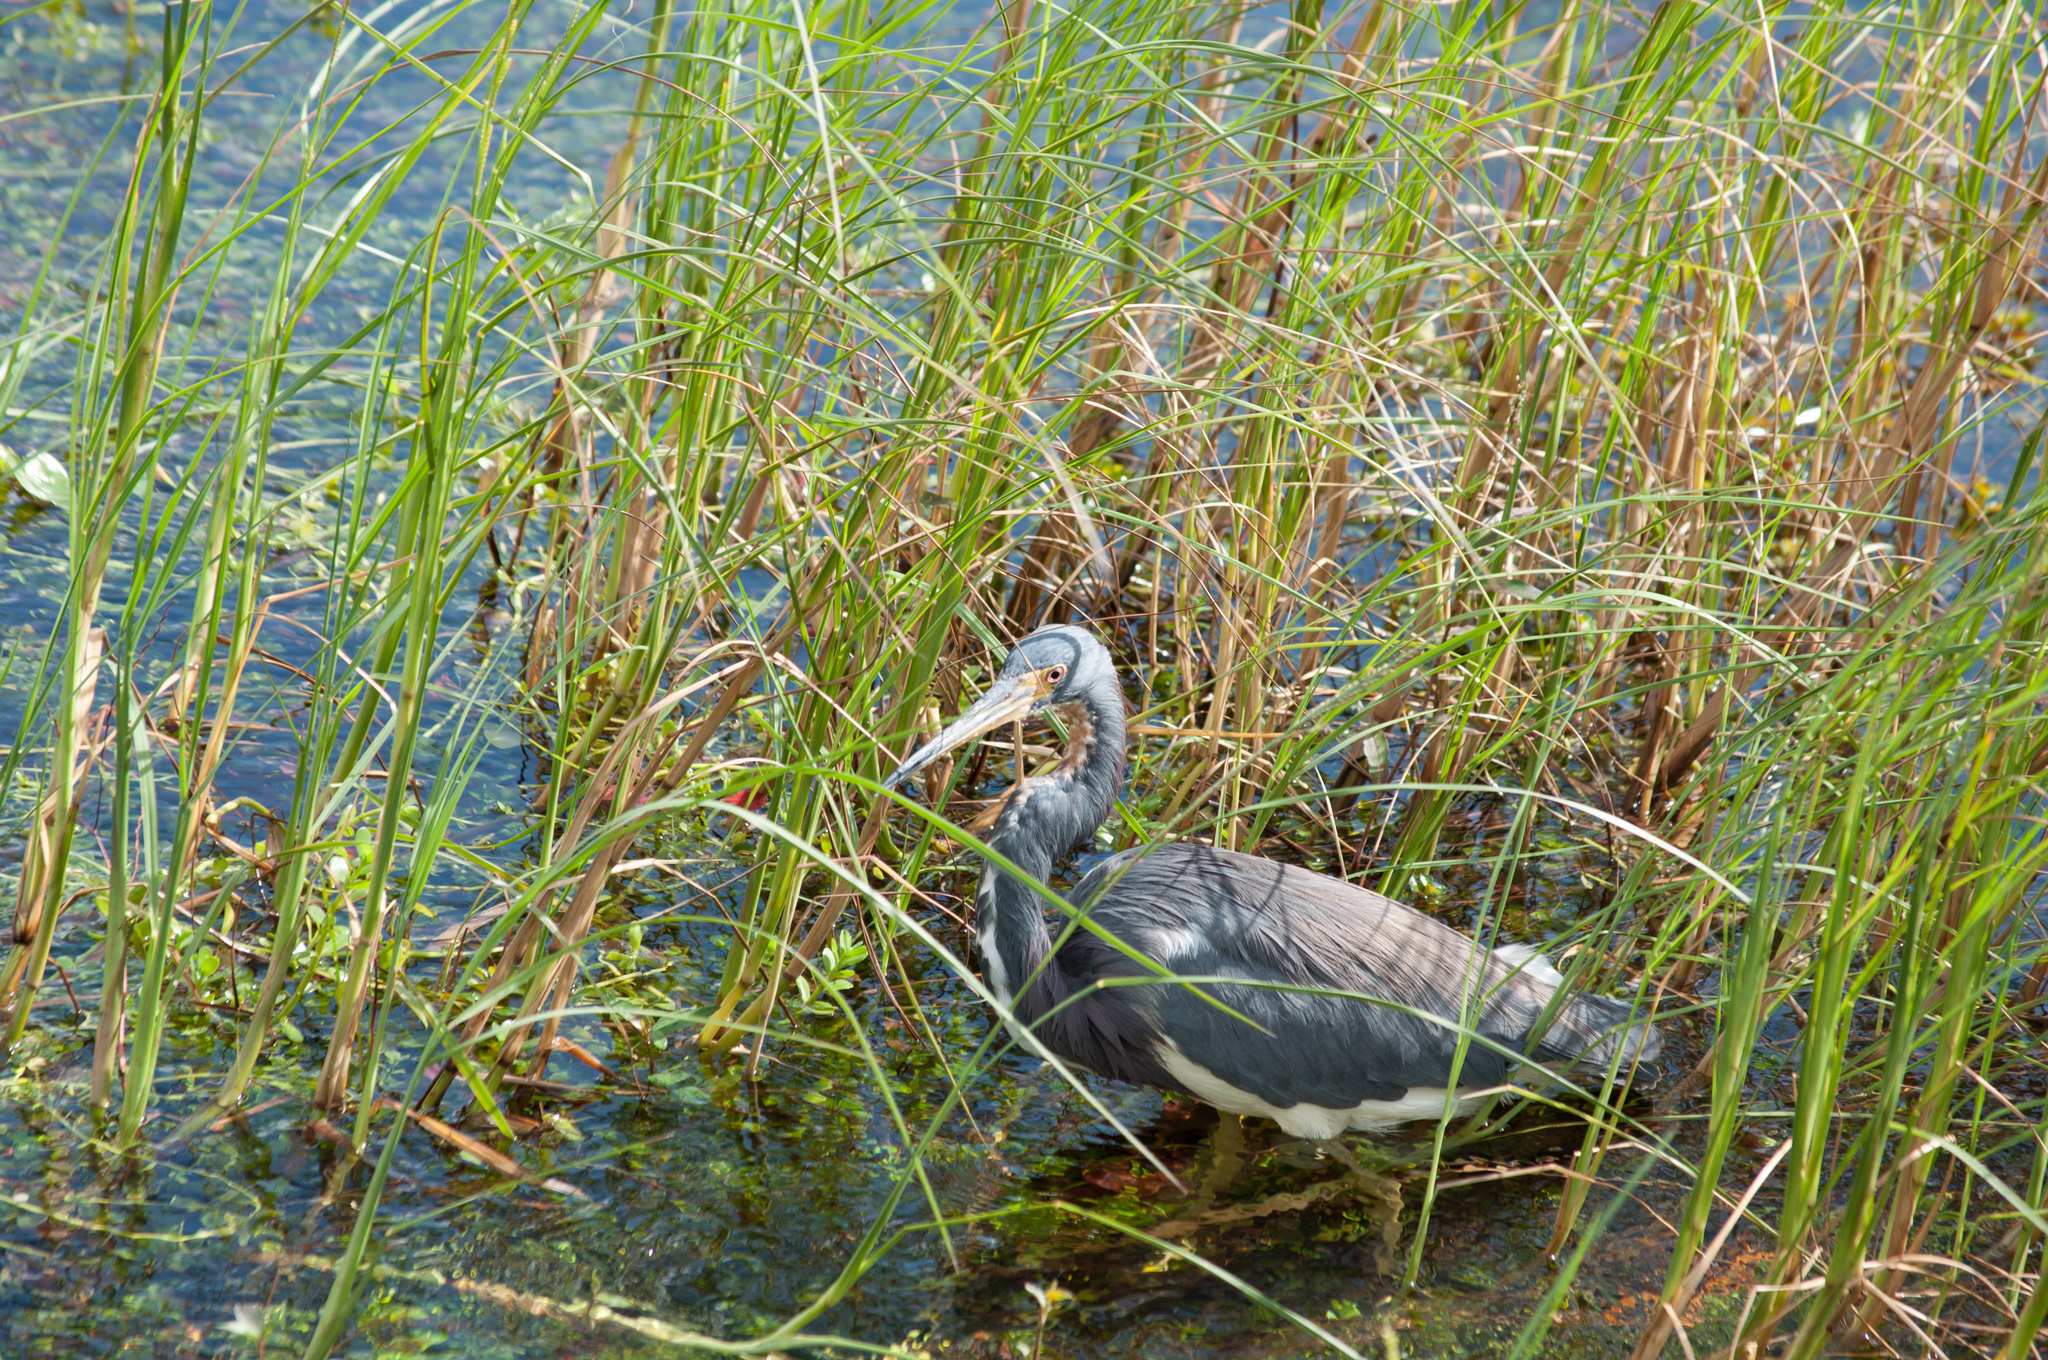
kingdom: Animalia
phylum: Chordata
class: Aves
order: Pelecaniformes
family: Ardeidae
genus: Egretta
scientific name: Egretta tricolor
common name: Tricolored heron
